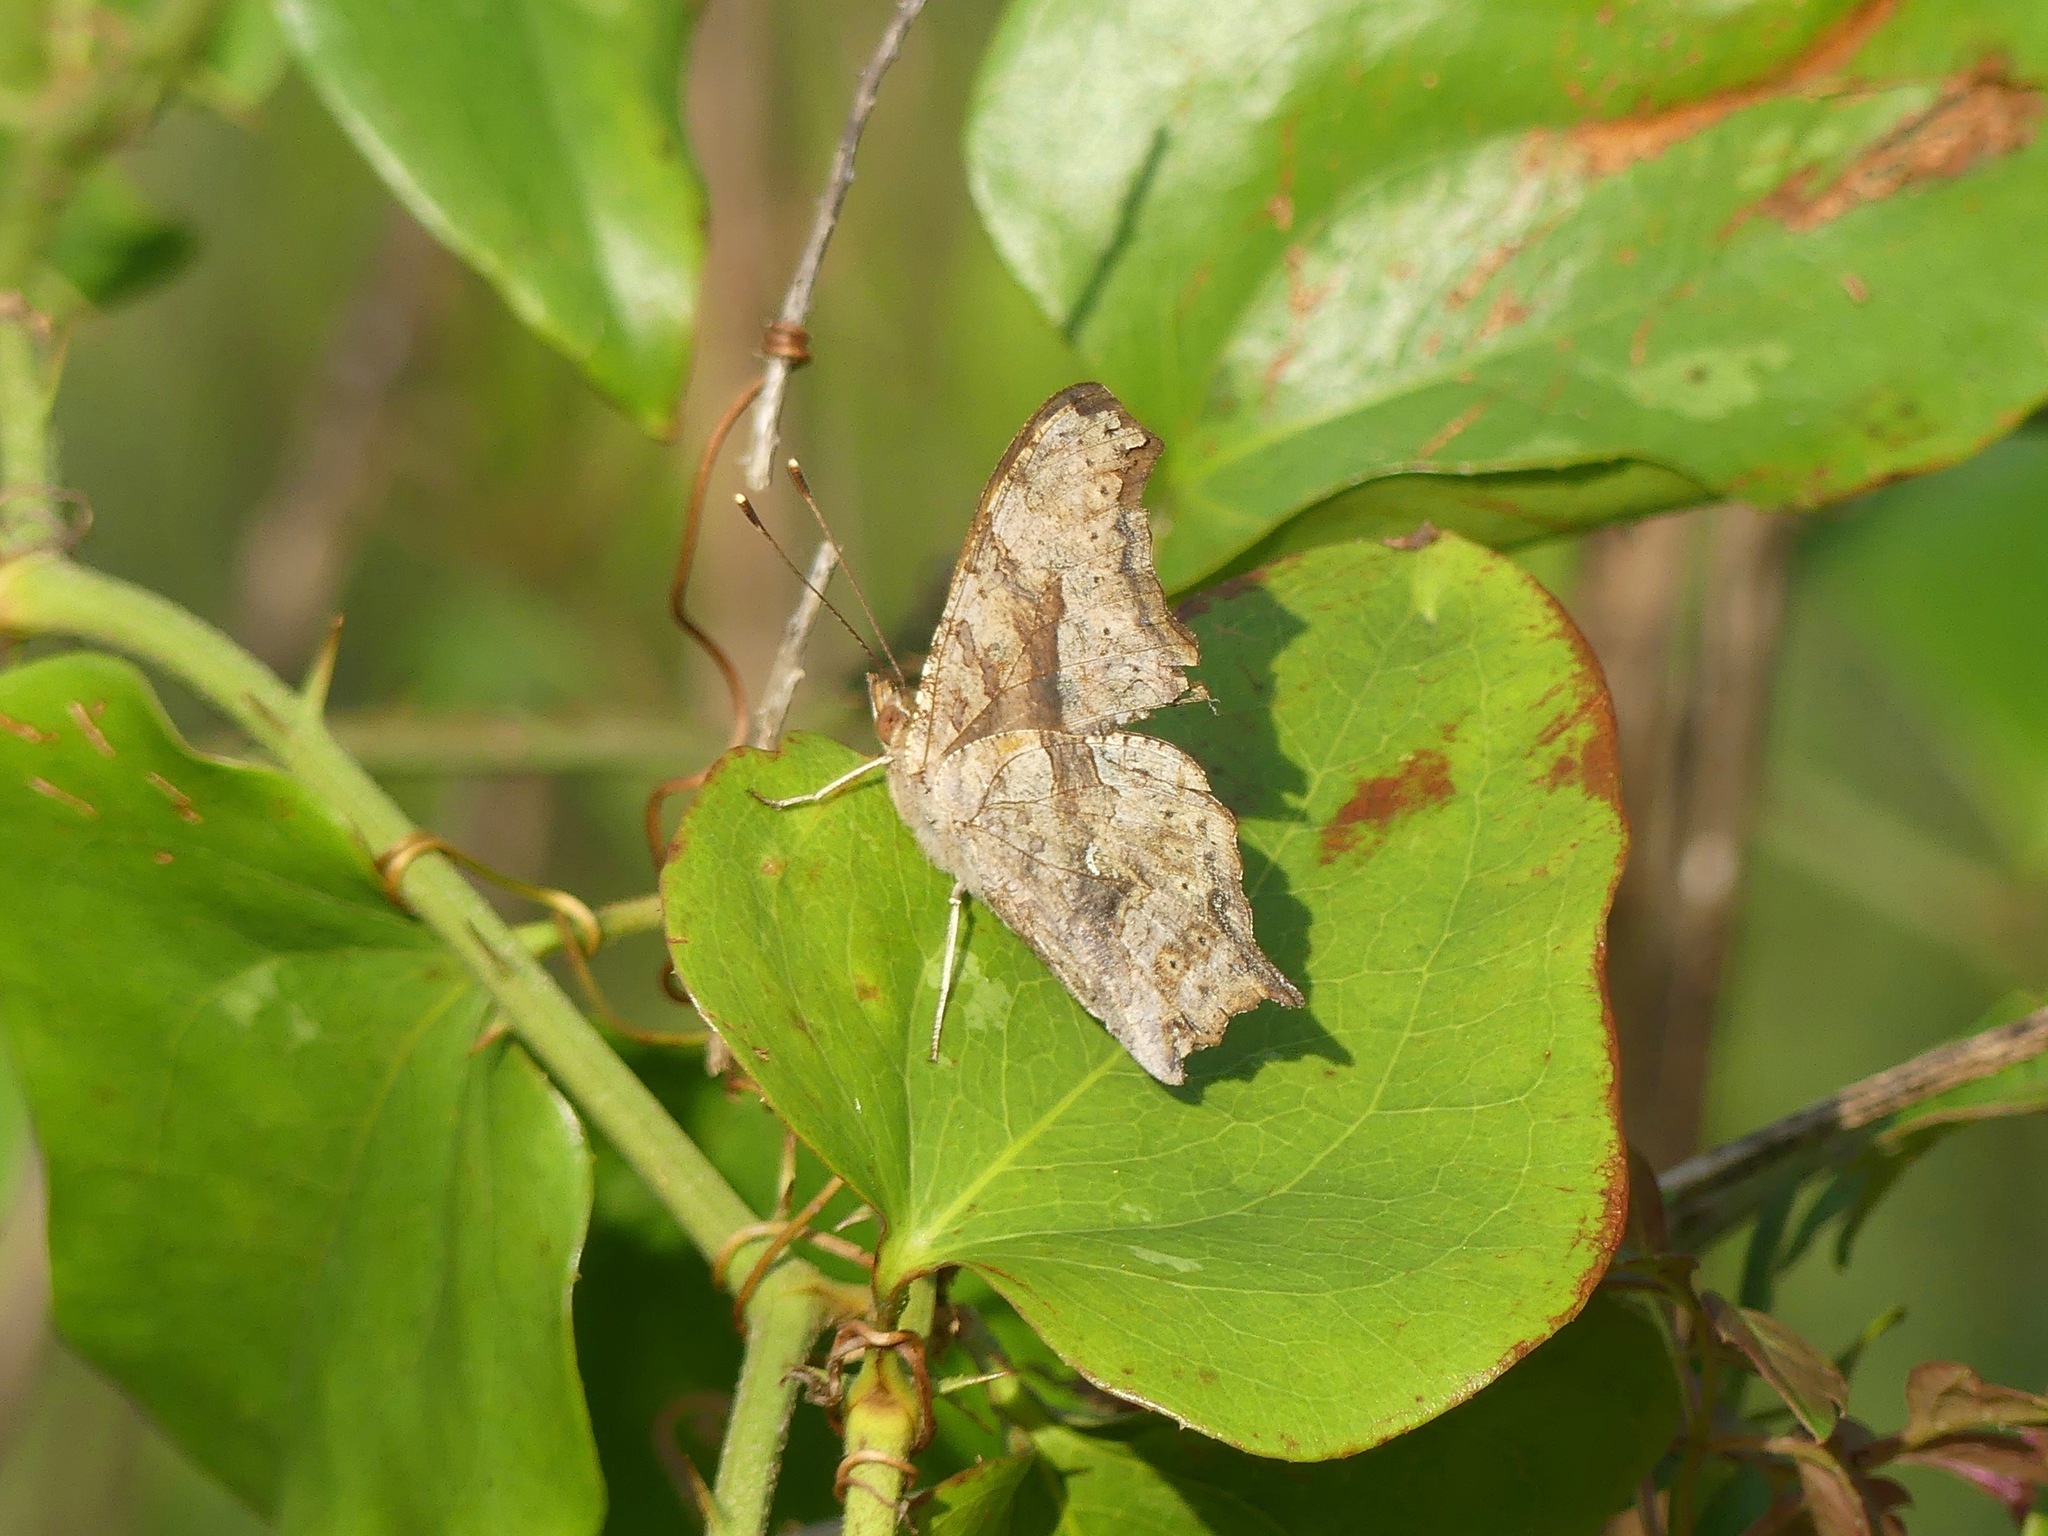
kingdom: Animalia
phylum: Arthropoda
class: Insecta
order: Lepidoptera
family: Nymphalidae
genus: Polygonia
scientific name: Polygonia interrogationis
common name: Question mark
